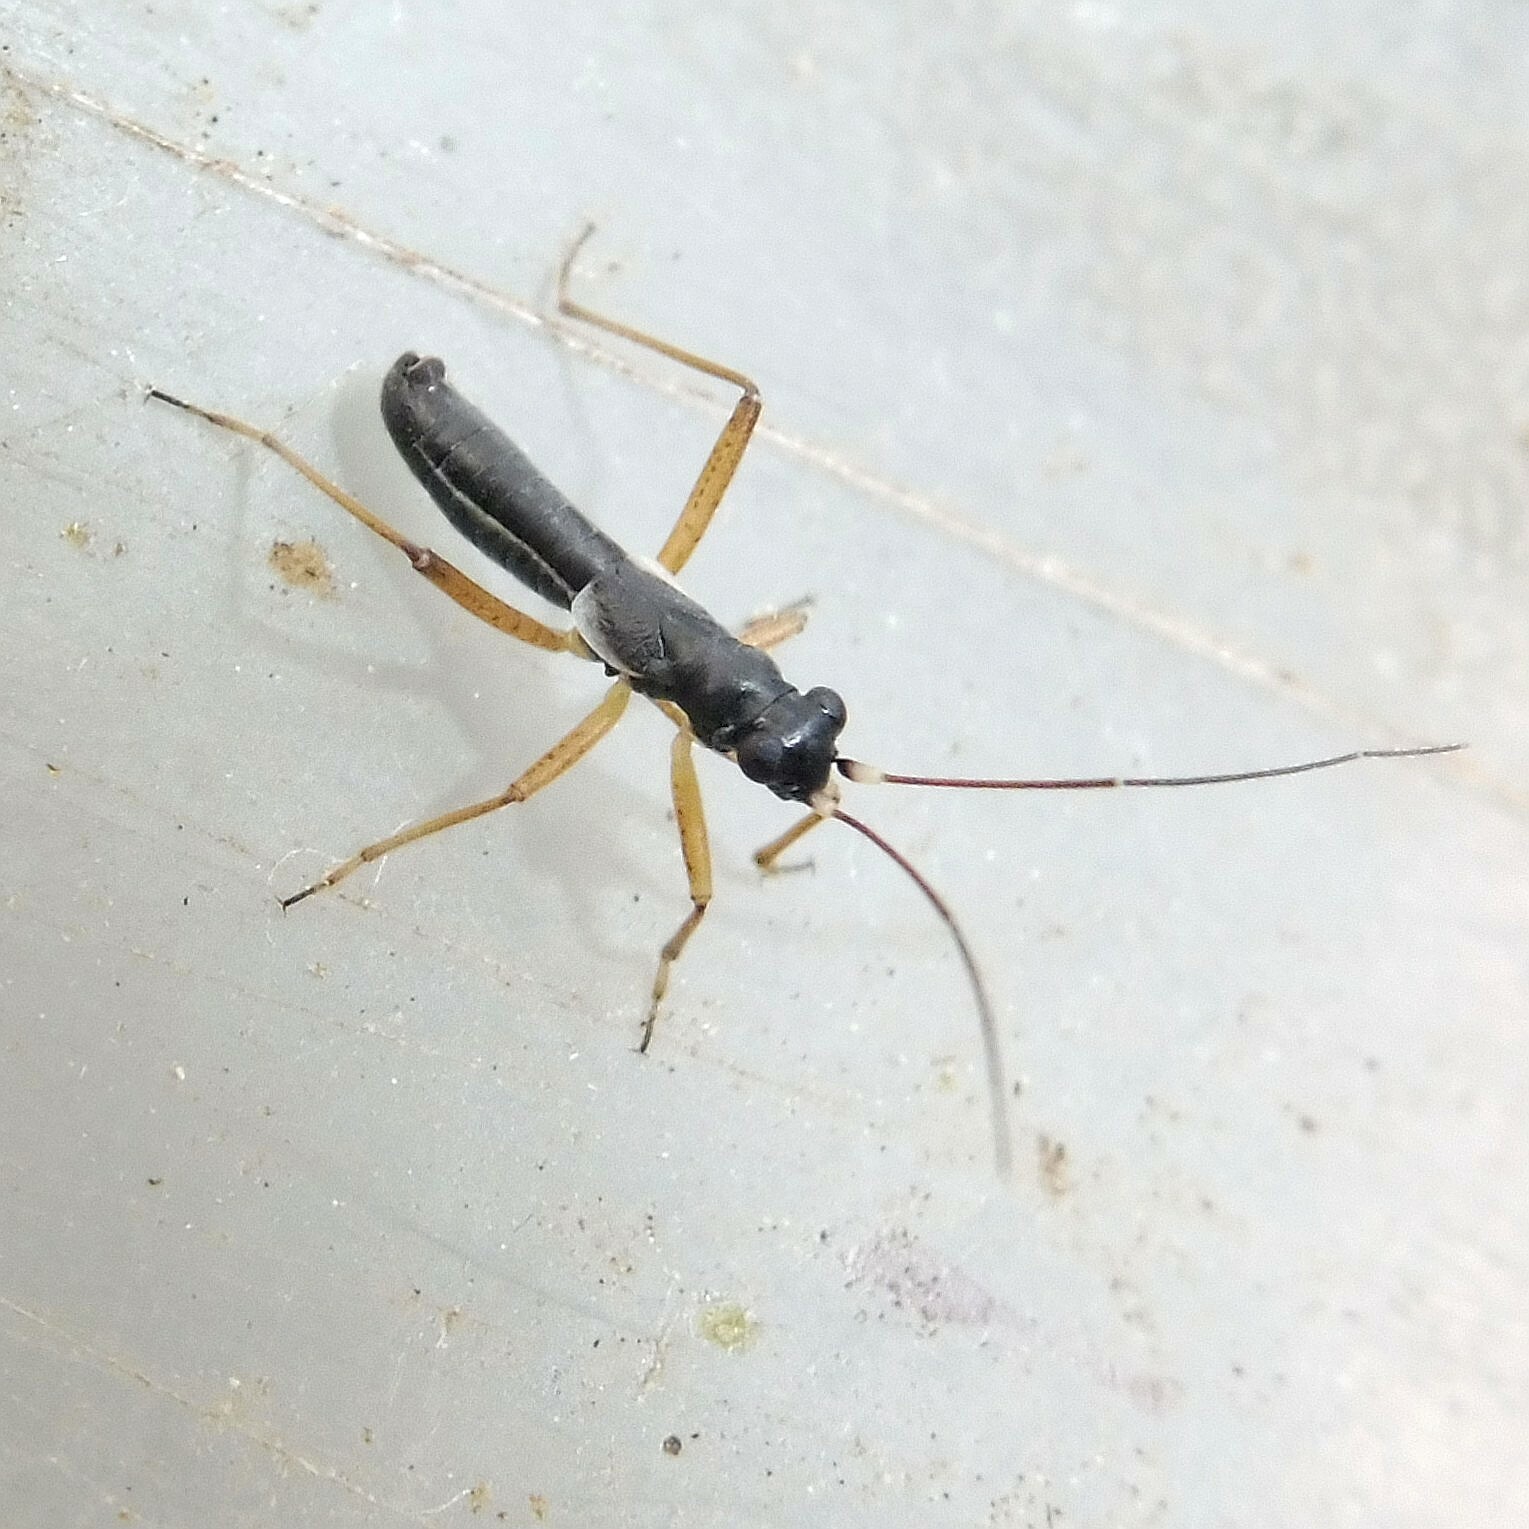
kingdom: Animalia
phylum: Arthropoda
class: Insecta
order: Hemiptera
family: Miridae
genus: Pithanus
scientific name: Pithanus maerkelii
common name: Plant bug
